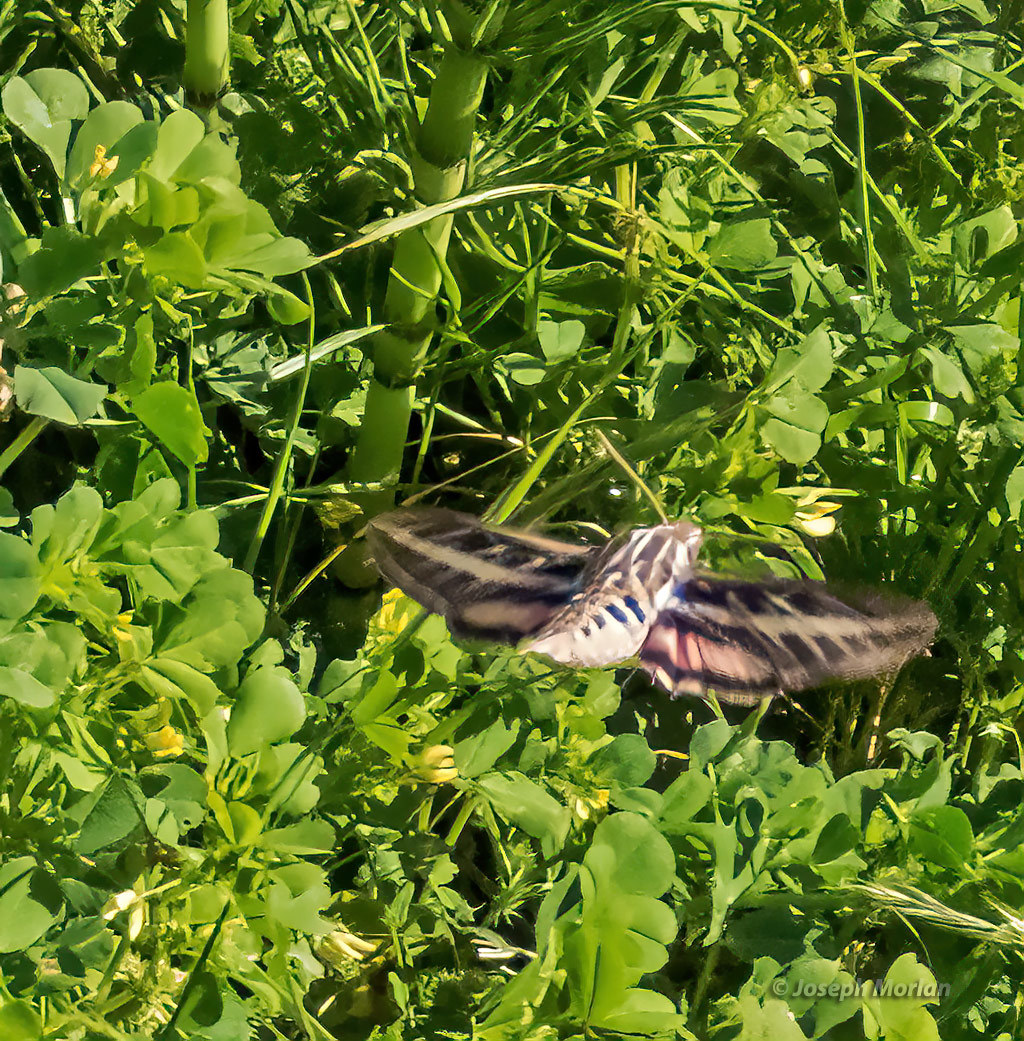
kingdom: Animalia
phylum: Arthropoda
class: Insecta
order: Lepidoptera
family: Sphingidae
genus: Hyles
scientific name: Hyles lineata
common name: White-lined sphinx
